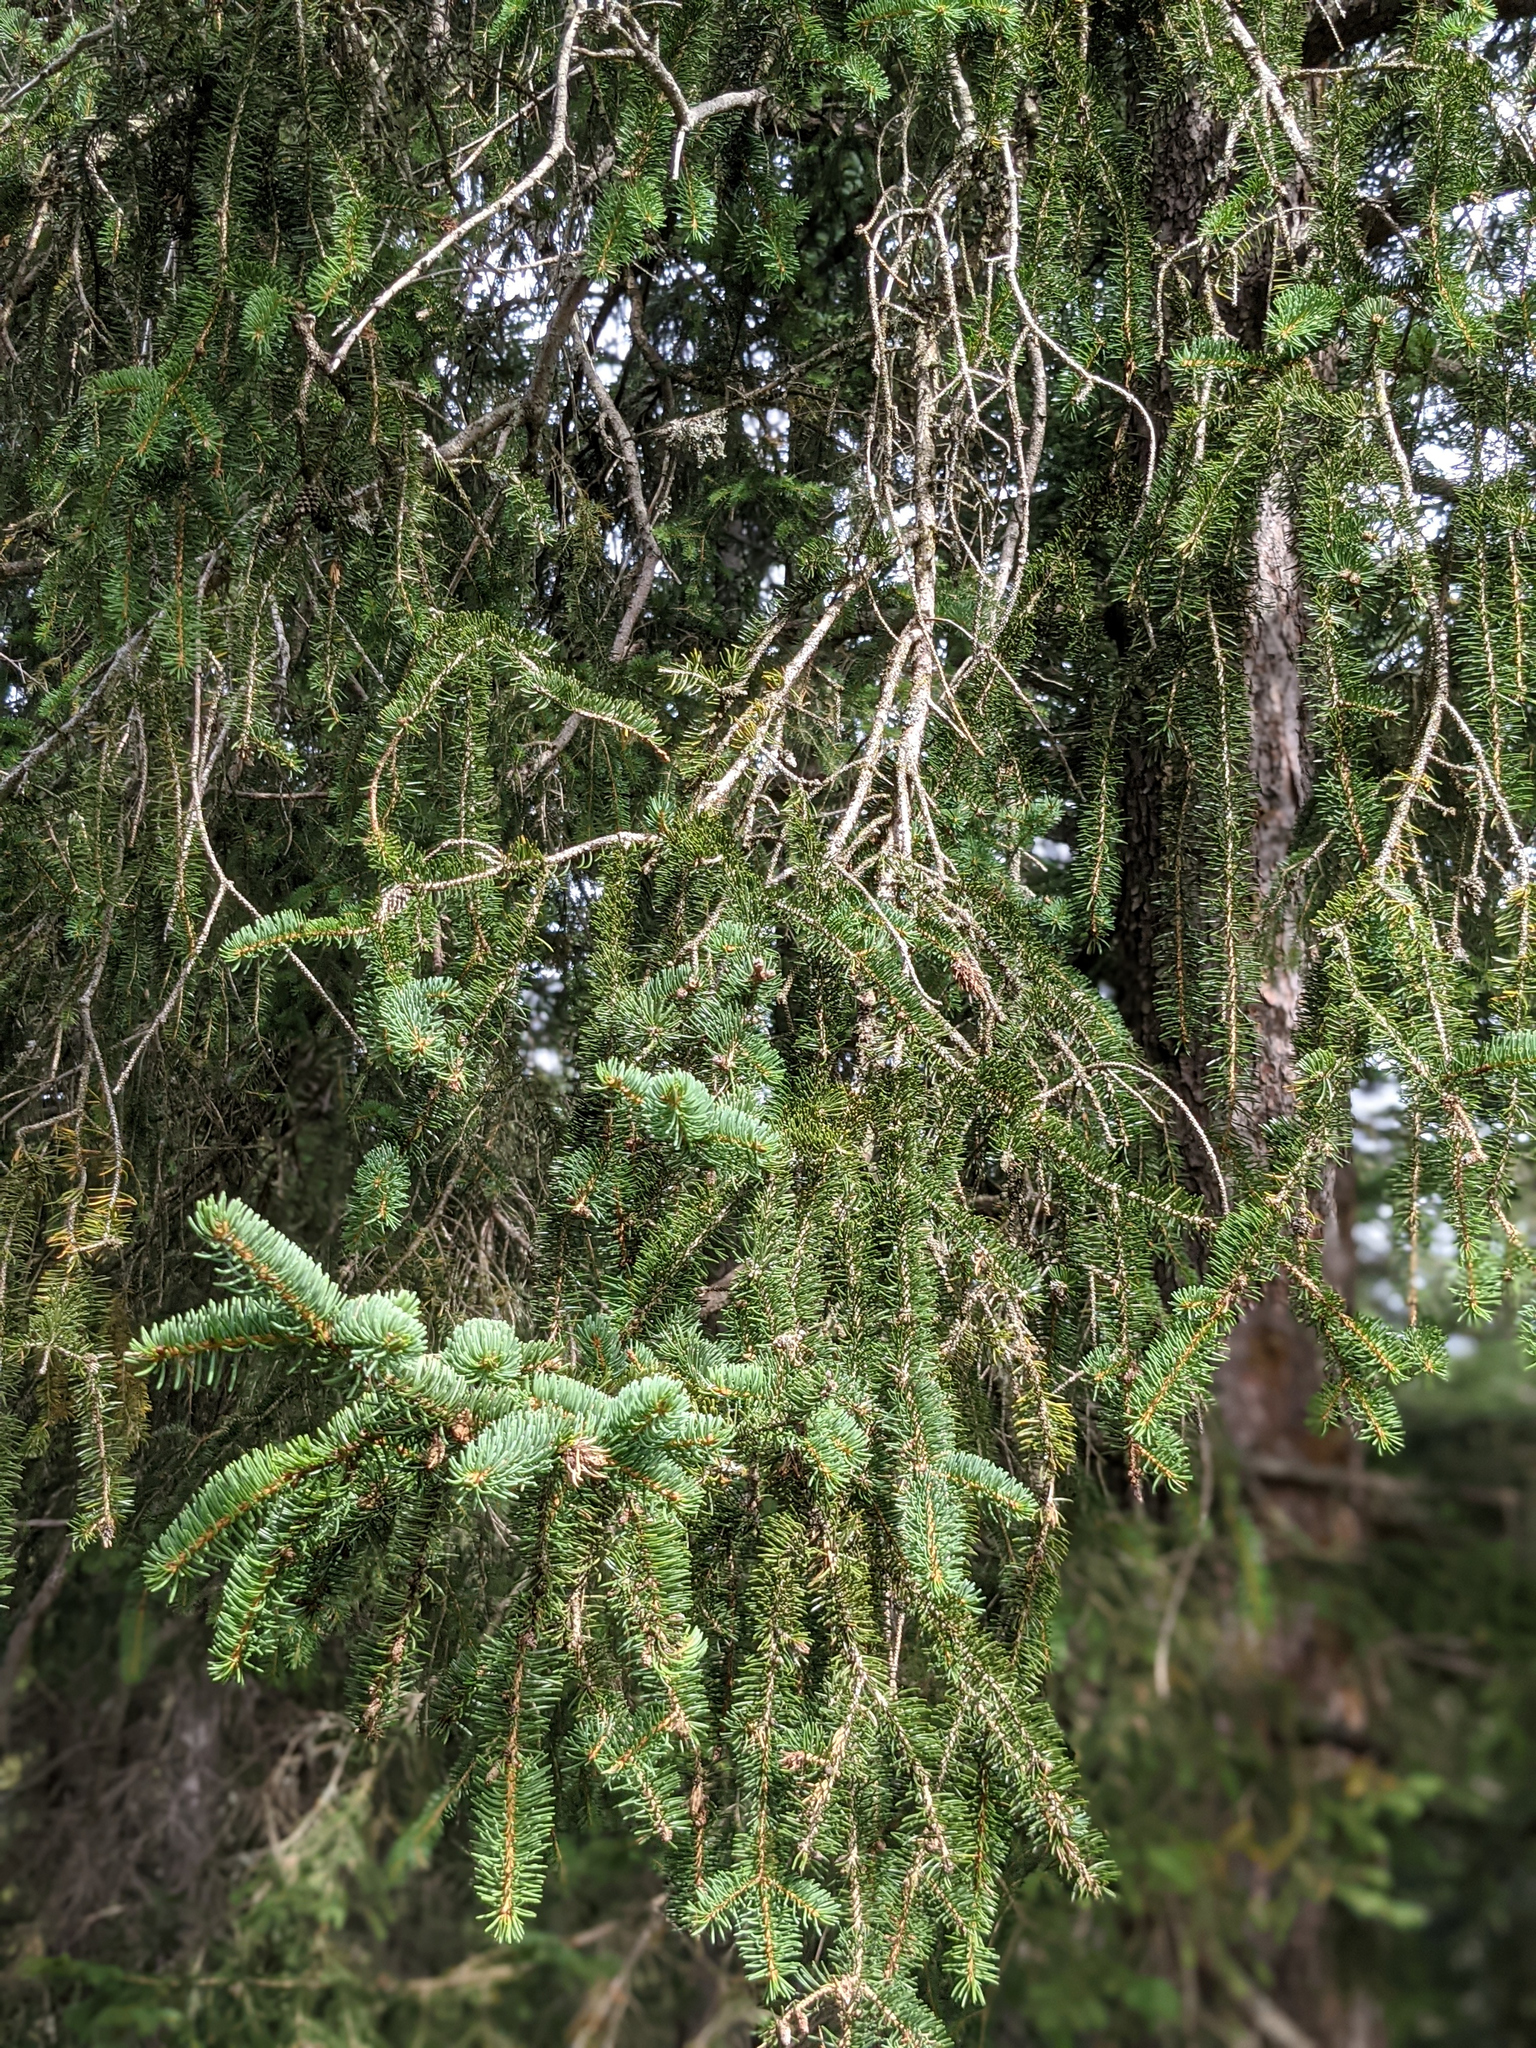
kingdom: Plantae
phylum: Tracheophyta
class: Pinopsida
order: Pinales
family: Pinaceae
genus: Picea
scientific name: Picea abies
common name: Norway spruce
